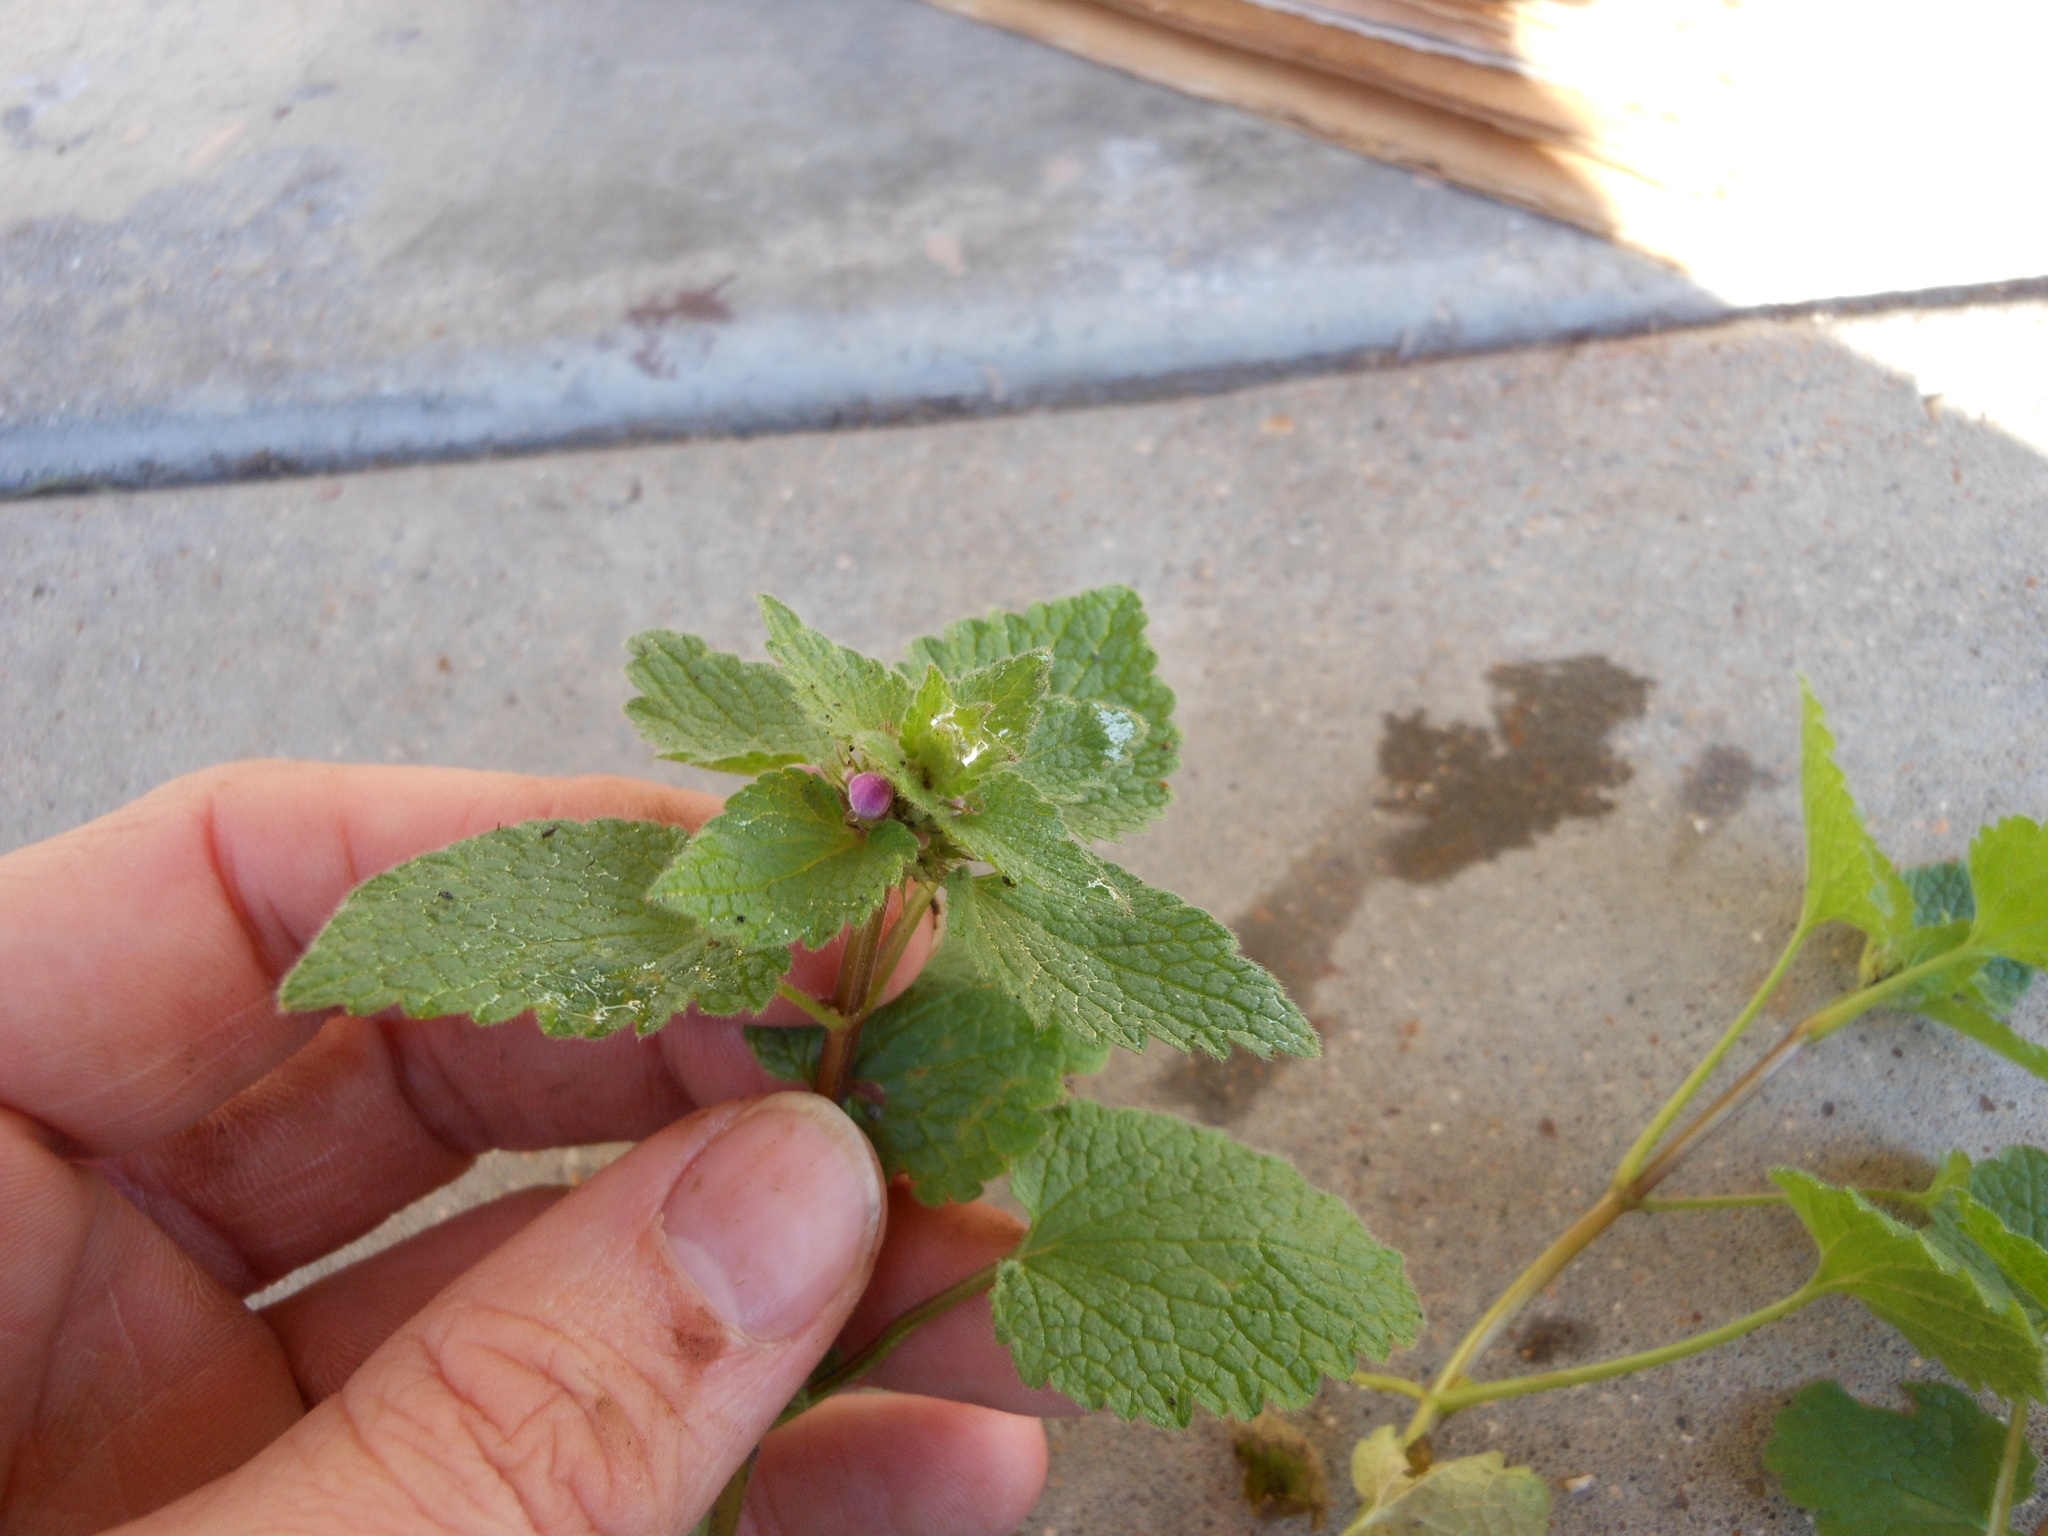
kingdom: Plantae
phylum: Tracheophyta
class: Magnoliopsida
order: Lamiales
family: Lamiaceae
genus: Lamium
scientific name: Lamium purpureum
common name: Red dead-nettle
